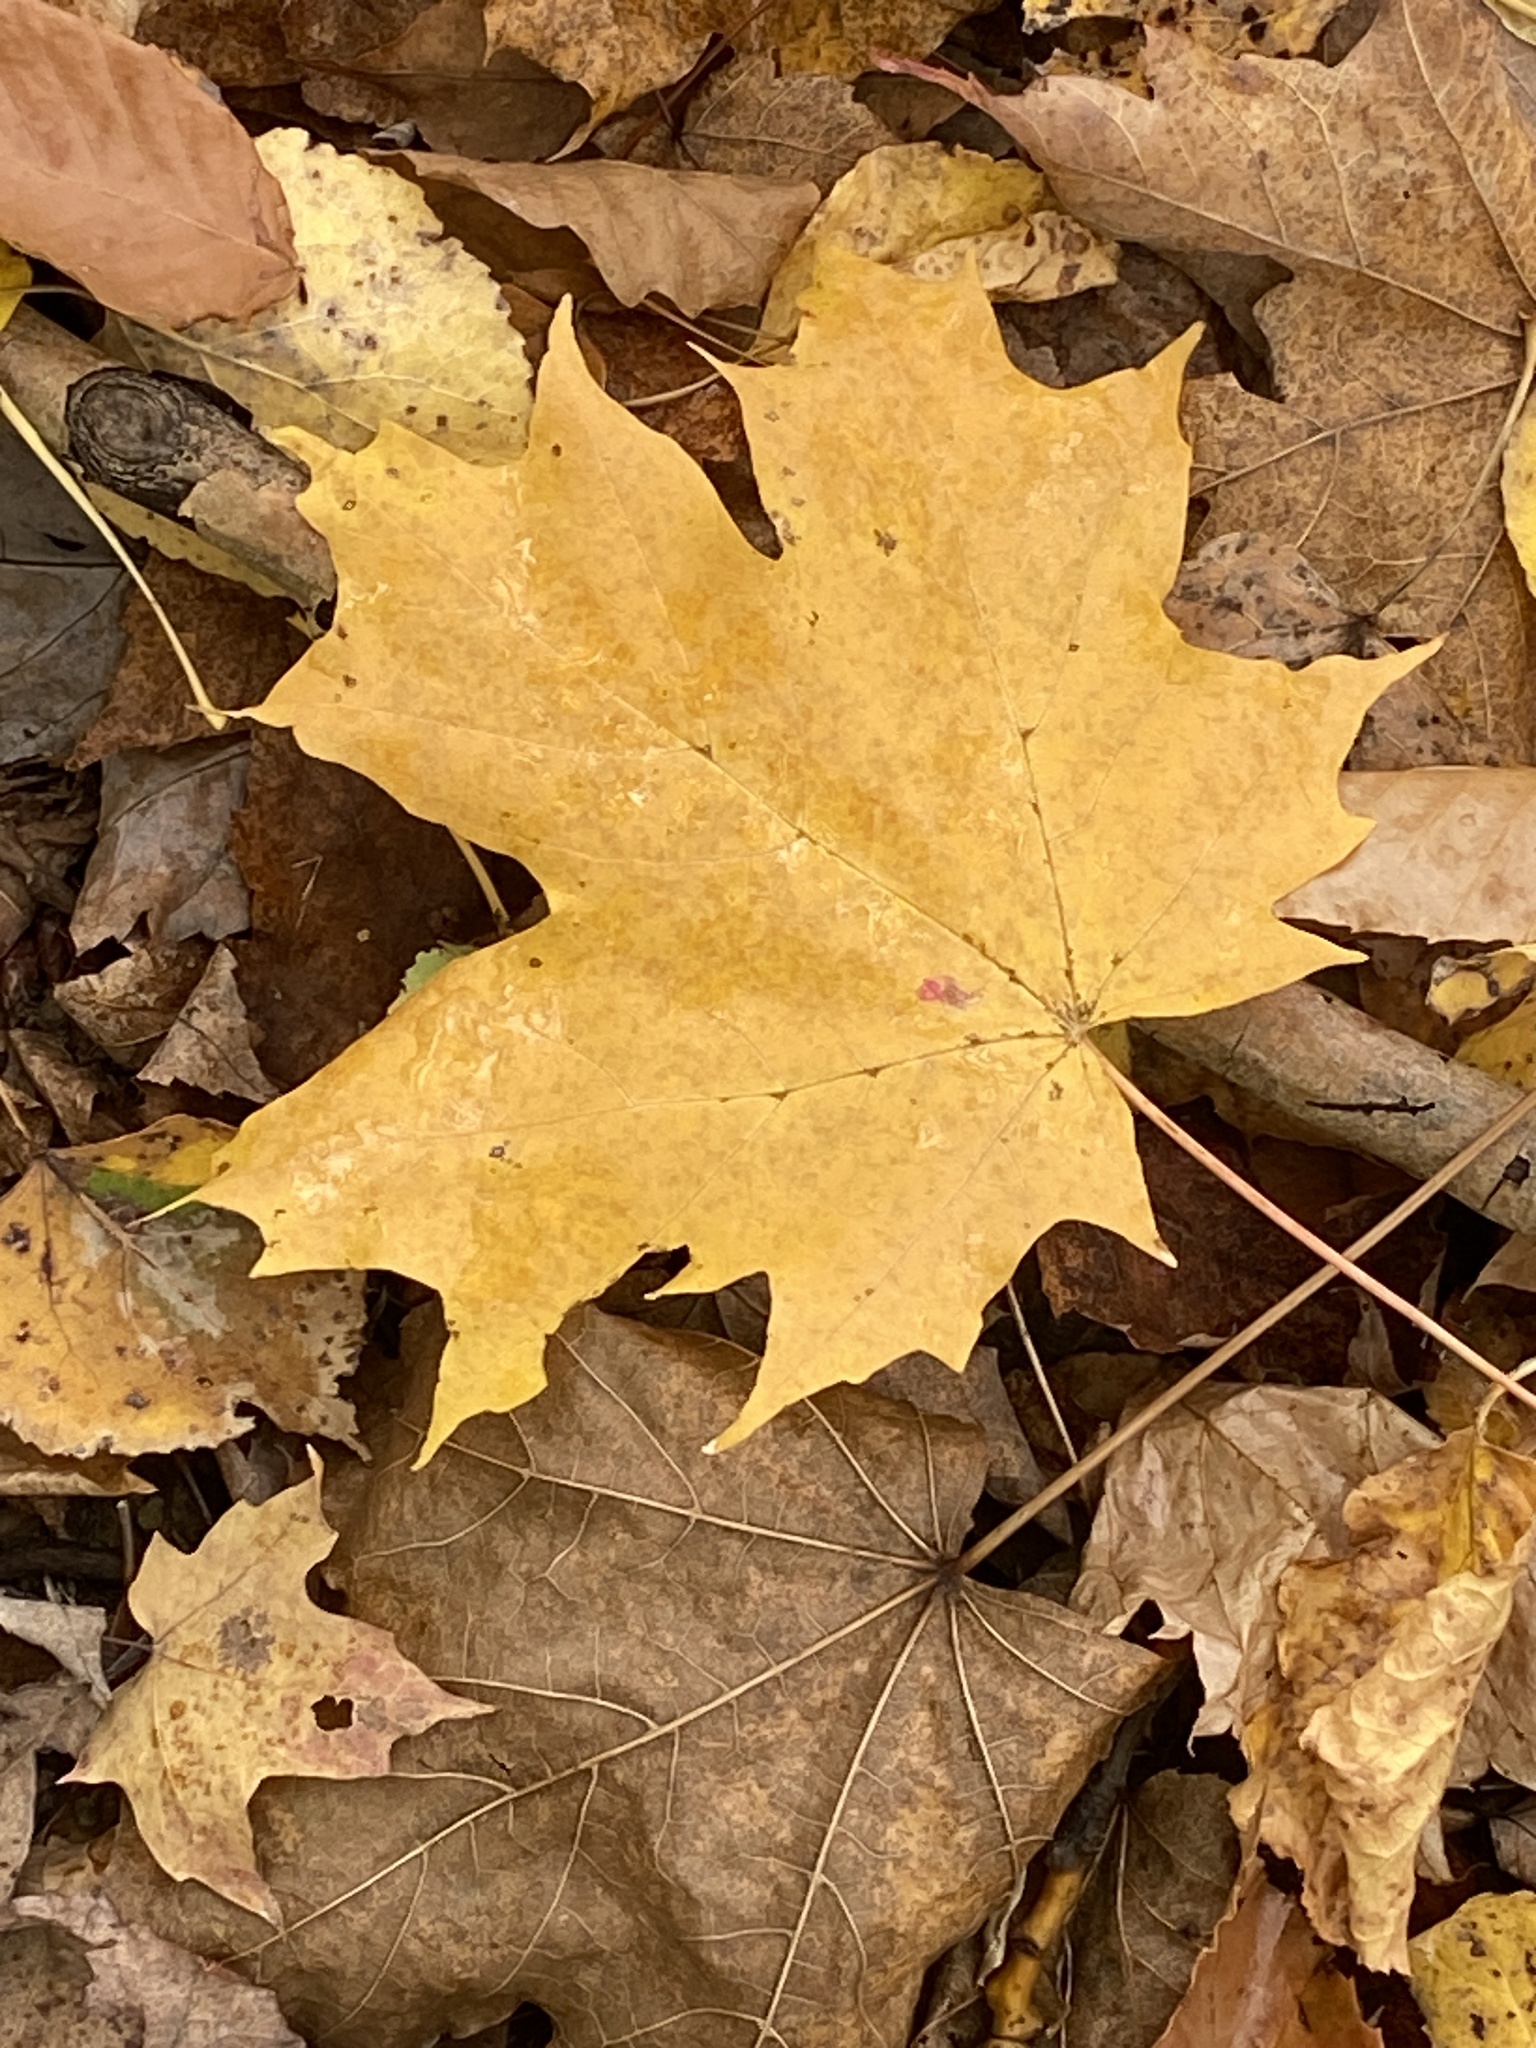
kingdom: Plantae
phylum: Tracheophyta
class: Magnoliopsida
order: Sapindales
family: Sapindaceae
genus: Acer
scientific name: Acer saccharum
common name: Sugar maple
